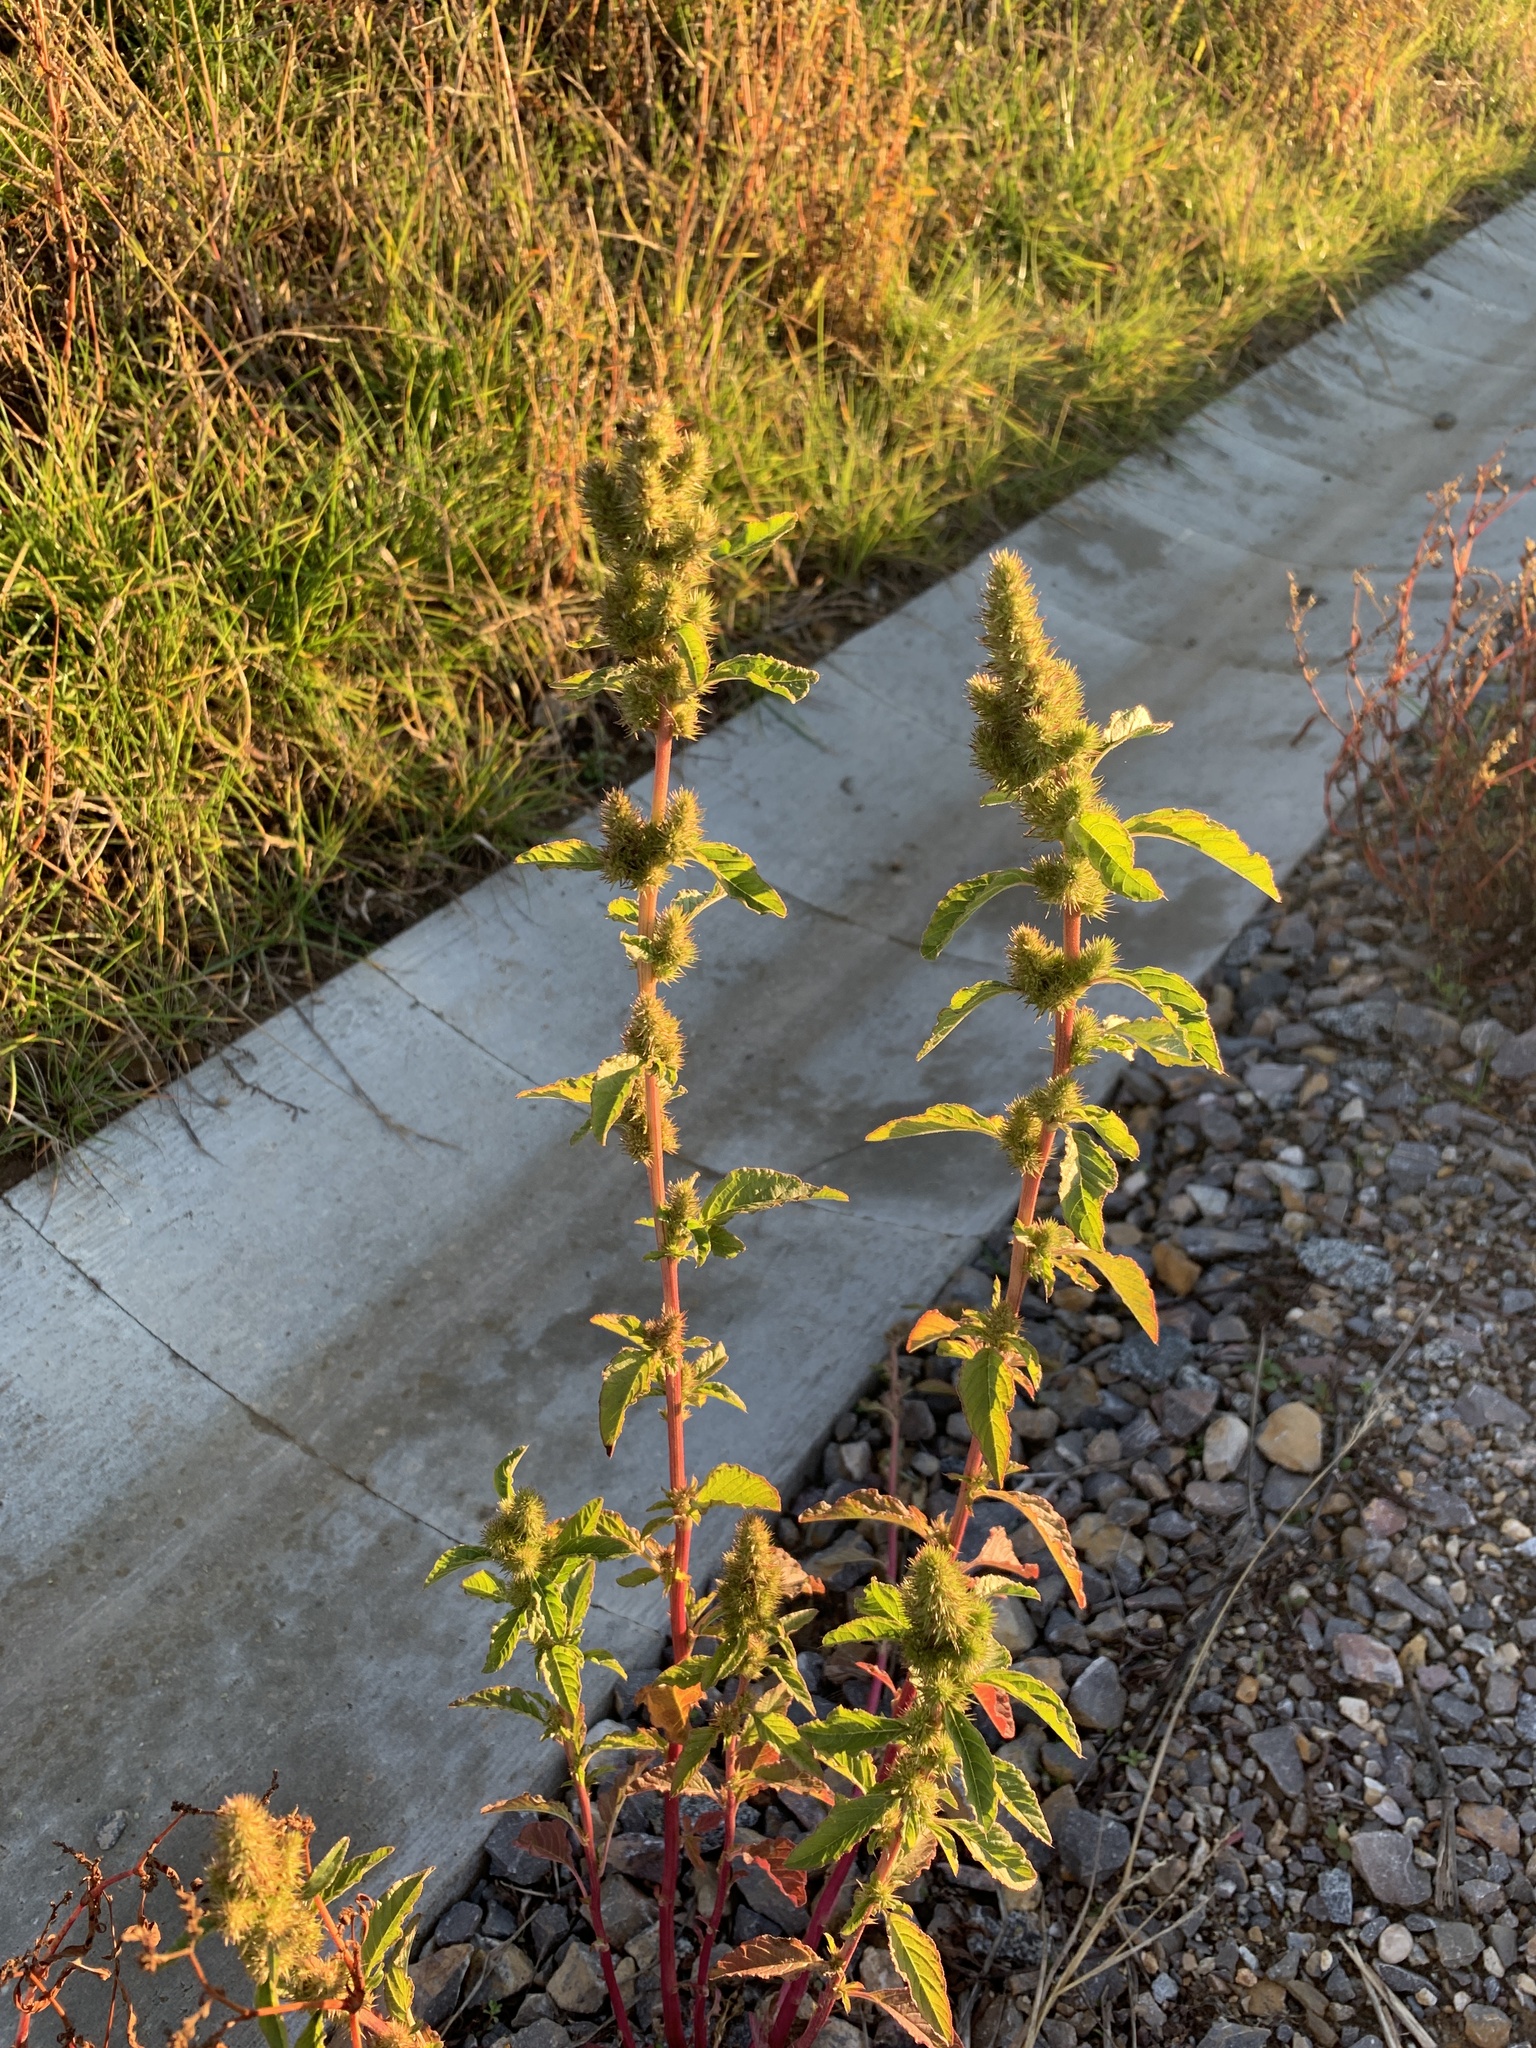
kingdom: Plantae
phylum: Tracheophyta
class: Magnoliopsida
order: Caryophyllales
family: Amaranthaceae
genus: Amaranthus
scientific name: Amaranthus retroflexus
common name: Redroot amaranth
